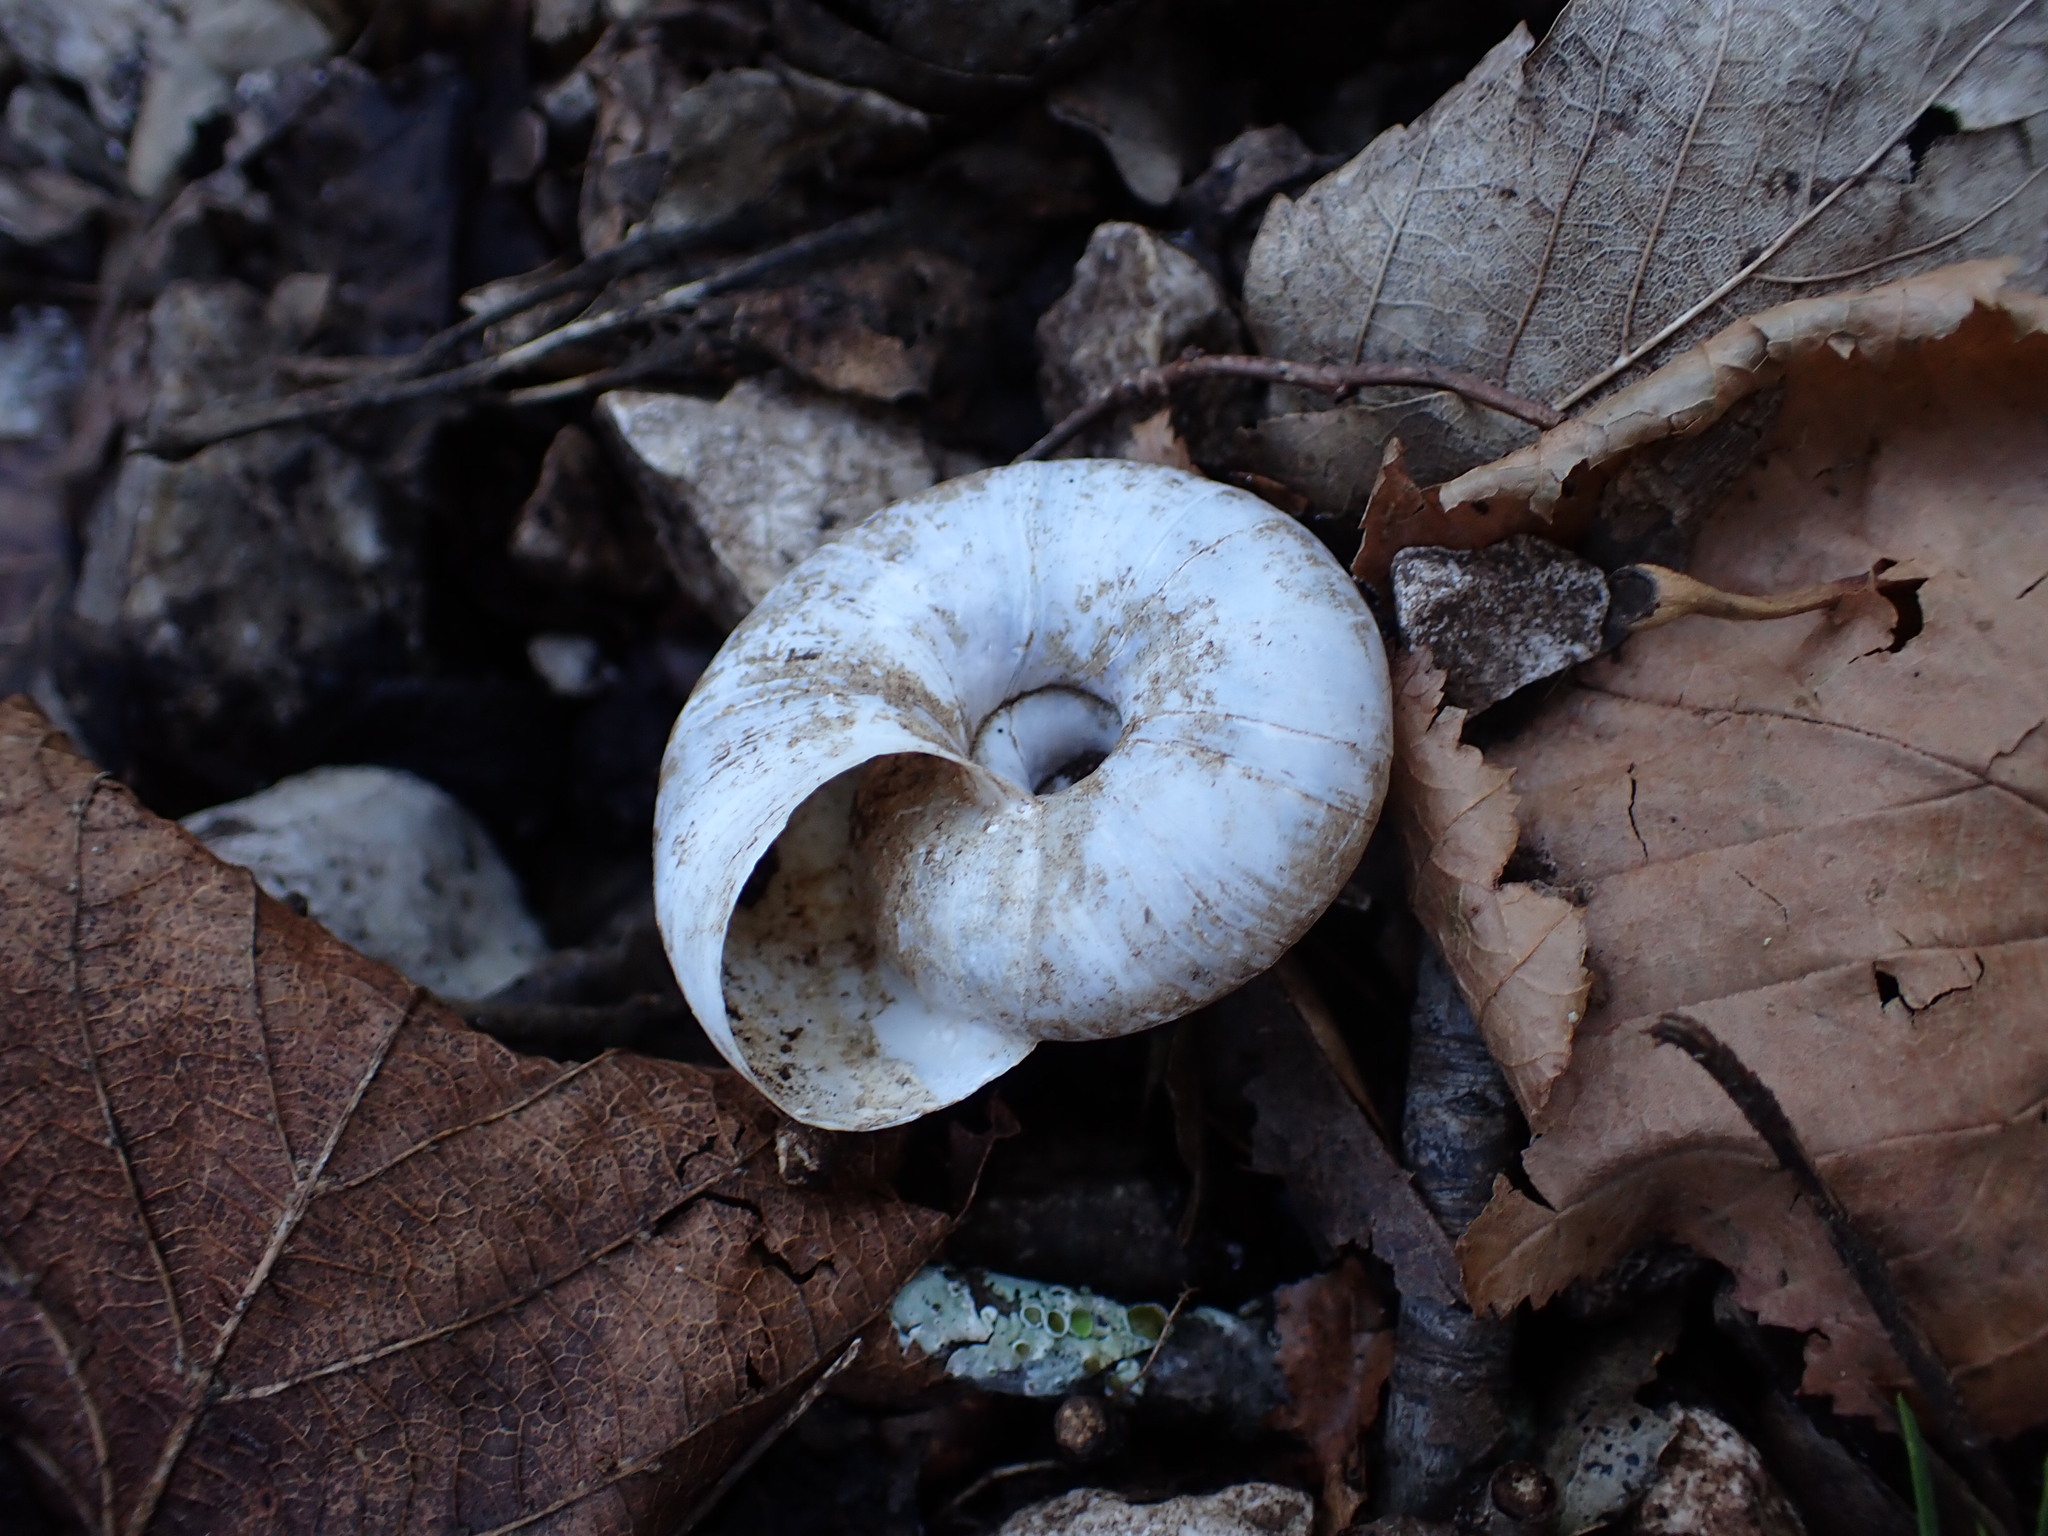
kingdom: Animalia
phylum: Mollusca
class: Gastropoda
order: Stylommatophora
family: Zonitidae
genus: Zonites
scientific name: Zonites algirus
